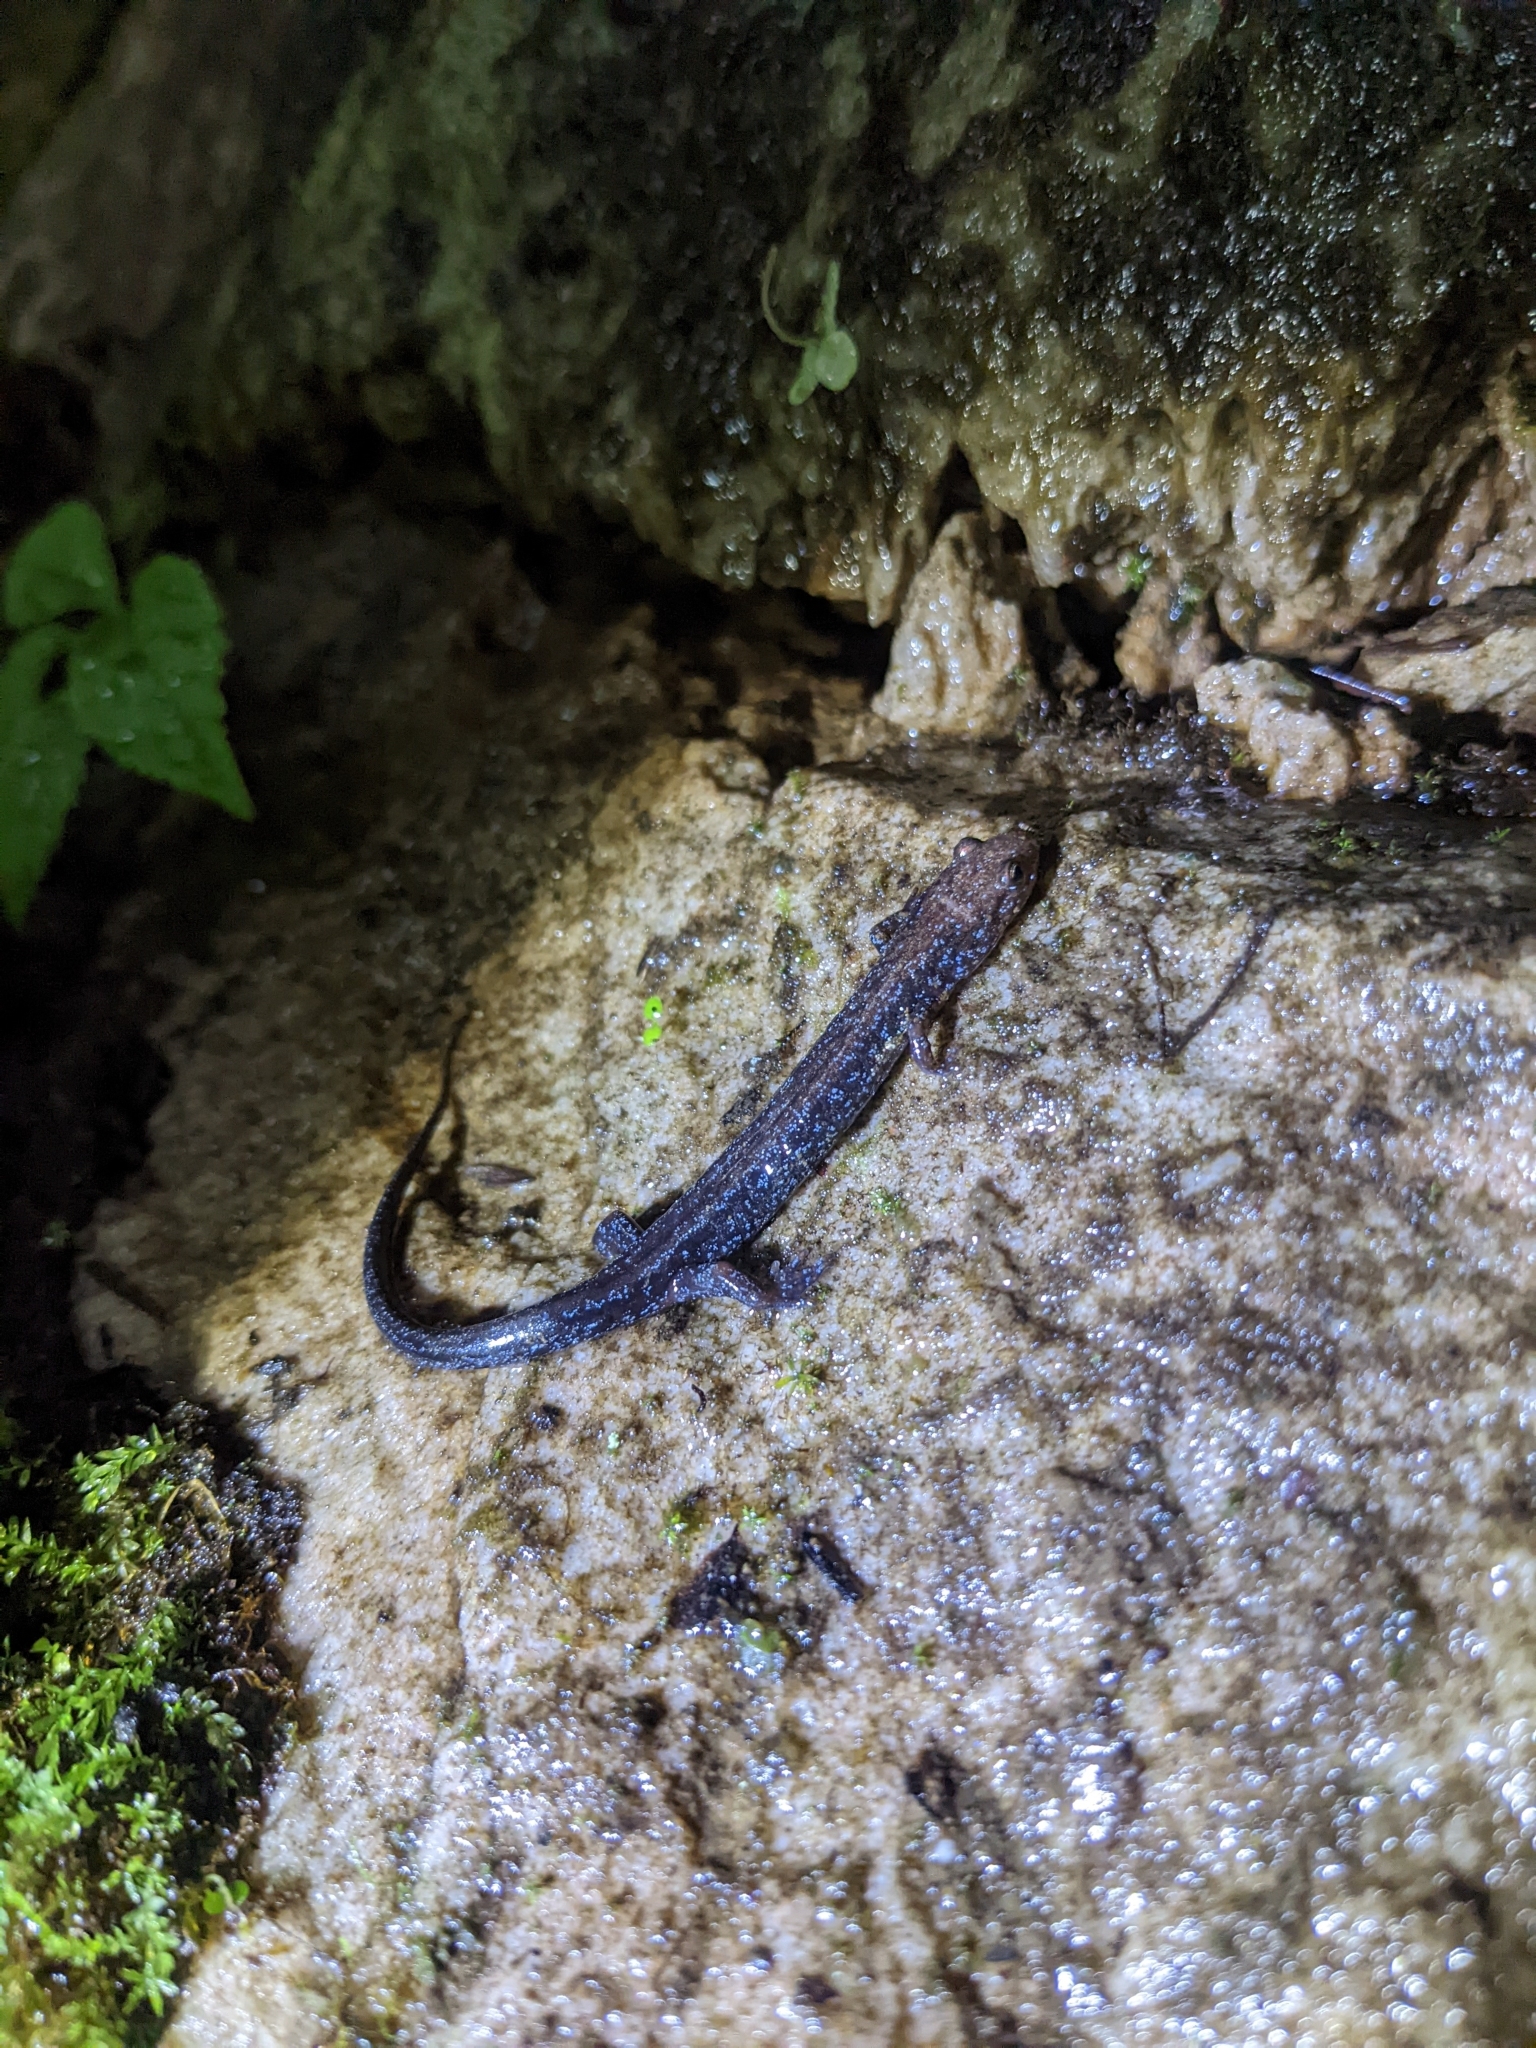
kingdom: Animalia
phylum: Chordata
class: Amphibia
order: Caudata
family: Plethodontidae
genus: Desmognathus
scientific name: Desmognathus ochrophaeus
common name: Allegheny mountain dusky salamander
